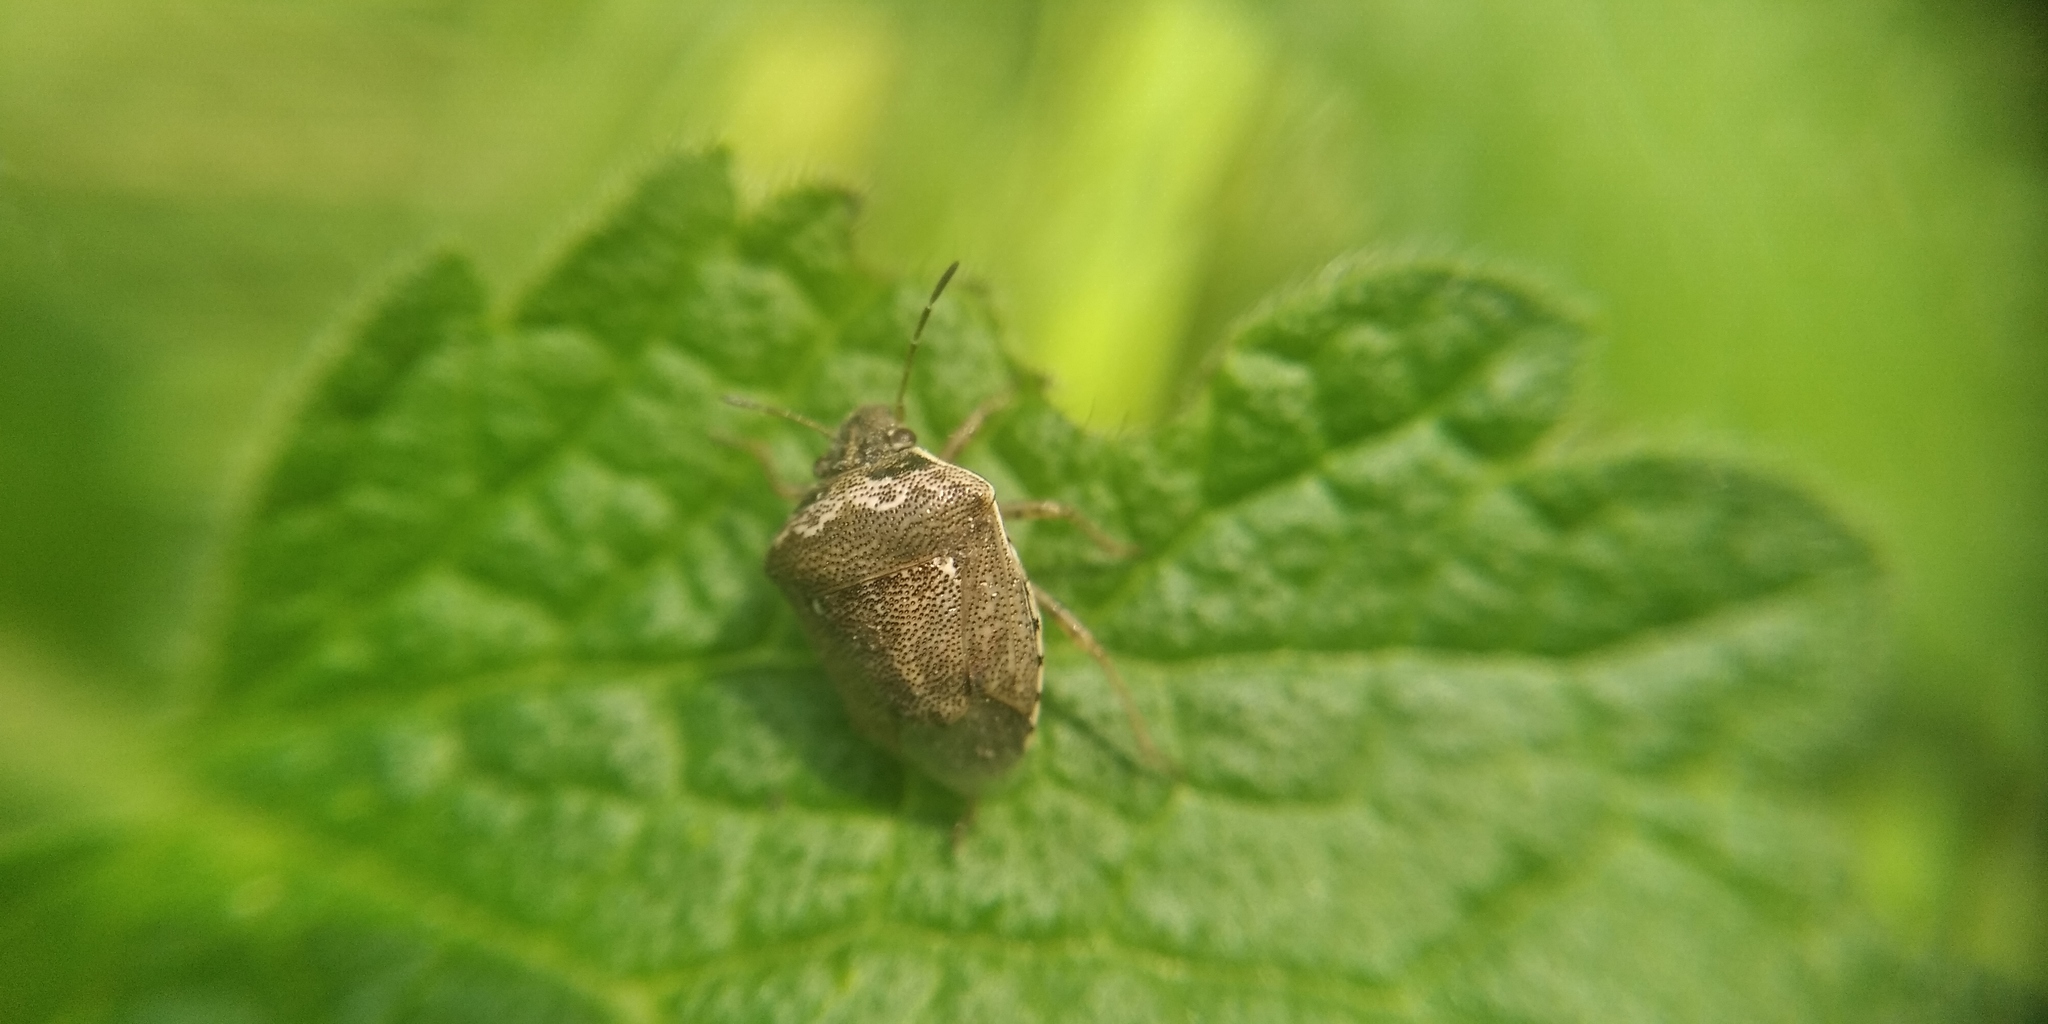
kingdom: Animalia
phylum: Arthropoda
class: Insecta
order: Hemiptera
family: Pentatomidae
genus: Eysarcoris
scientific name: Eysarcoris ventralis
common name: White-spotted stink bug
